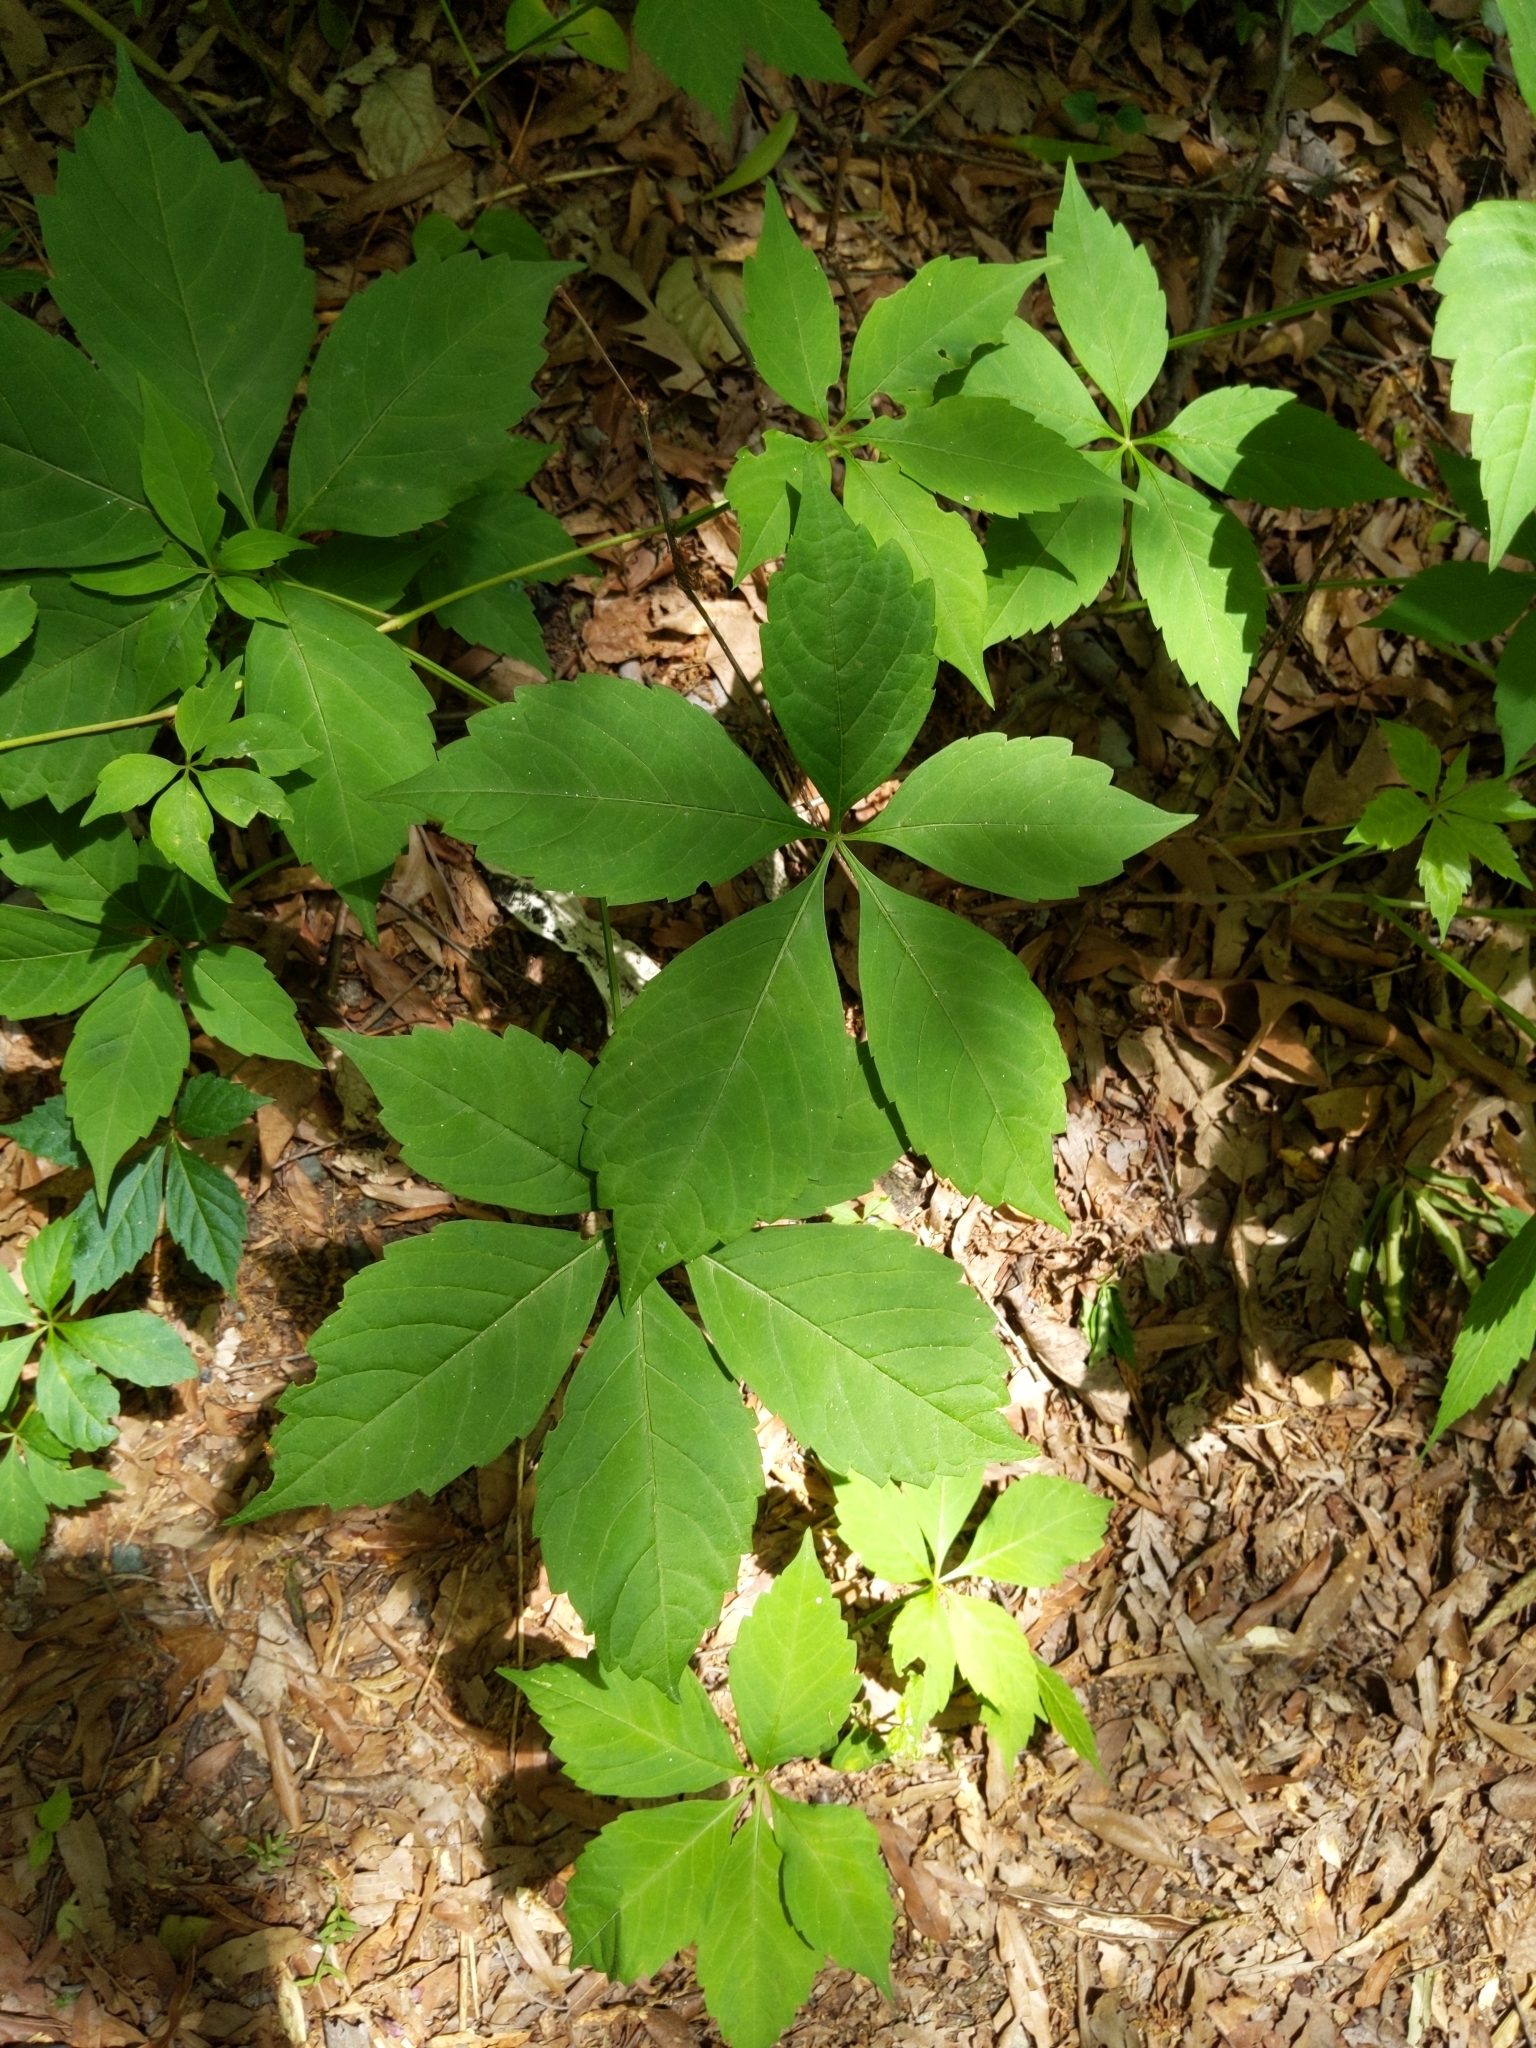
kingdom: Plantae
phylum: Tracheophyta
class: Magnoliopsida
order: Vitales
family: Vitaceae
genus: Parthenocissus
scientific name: Parthenocissus quinquefolia
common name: Virginia-creeper
